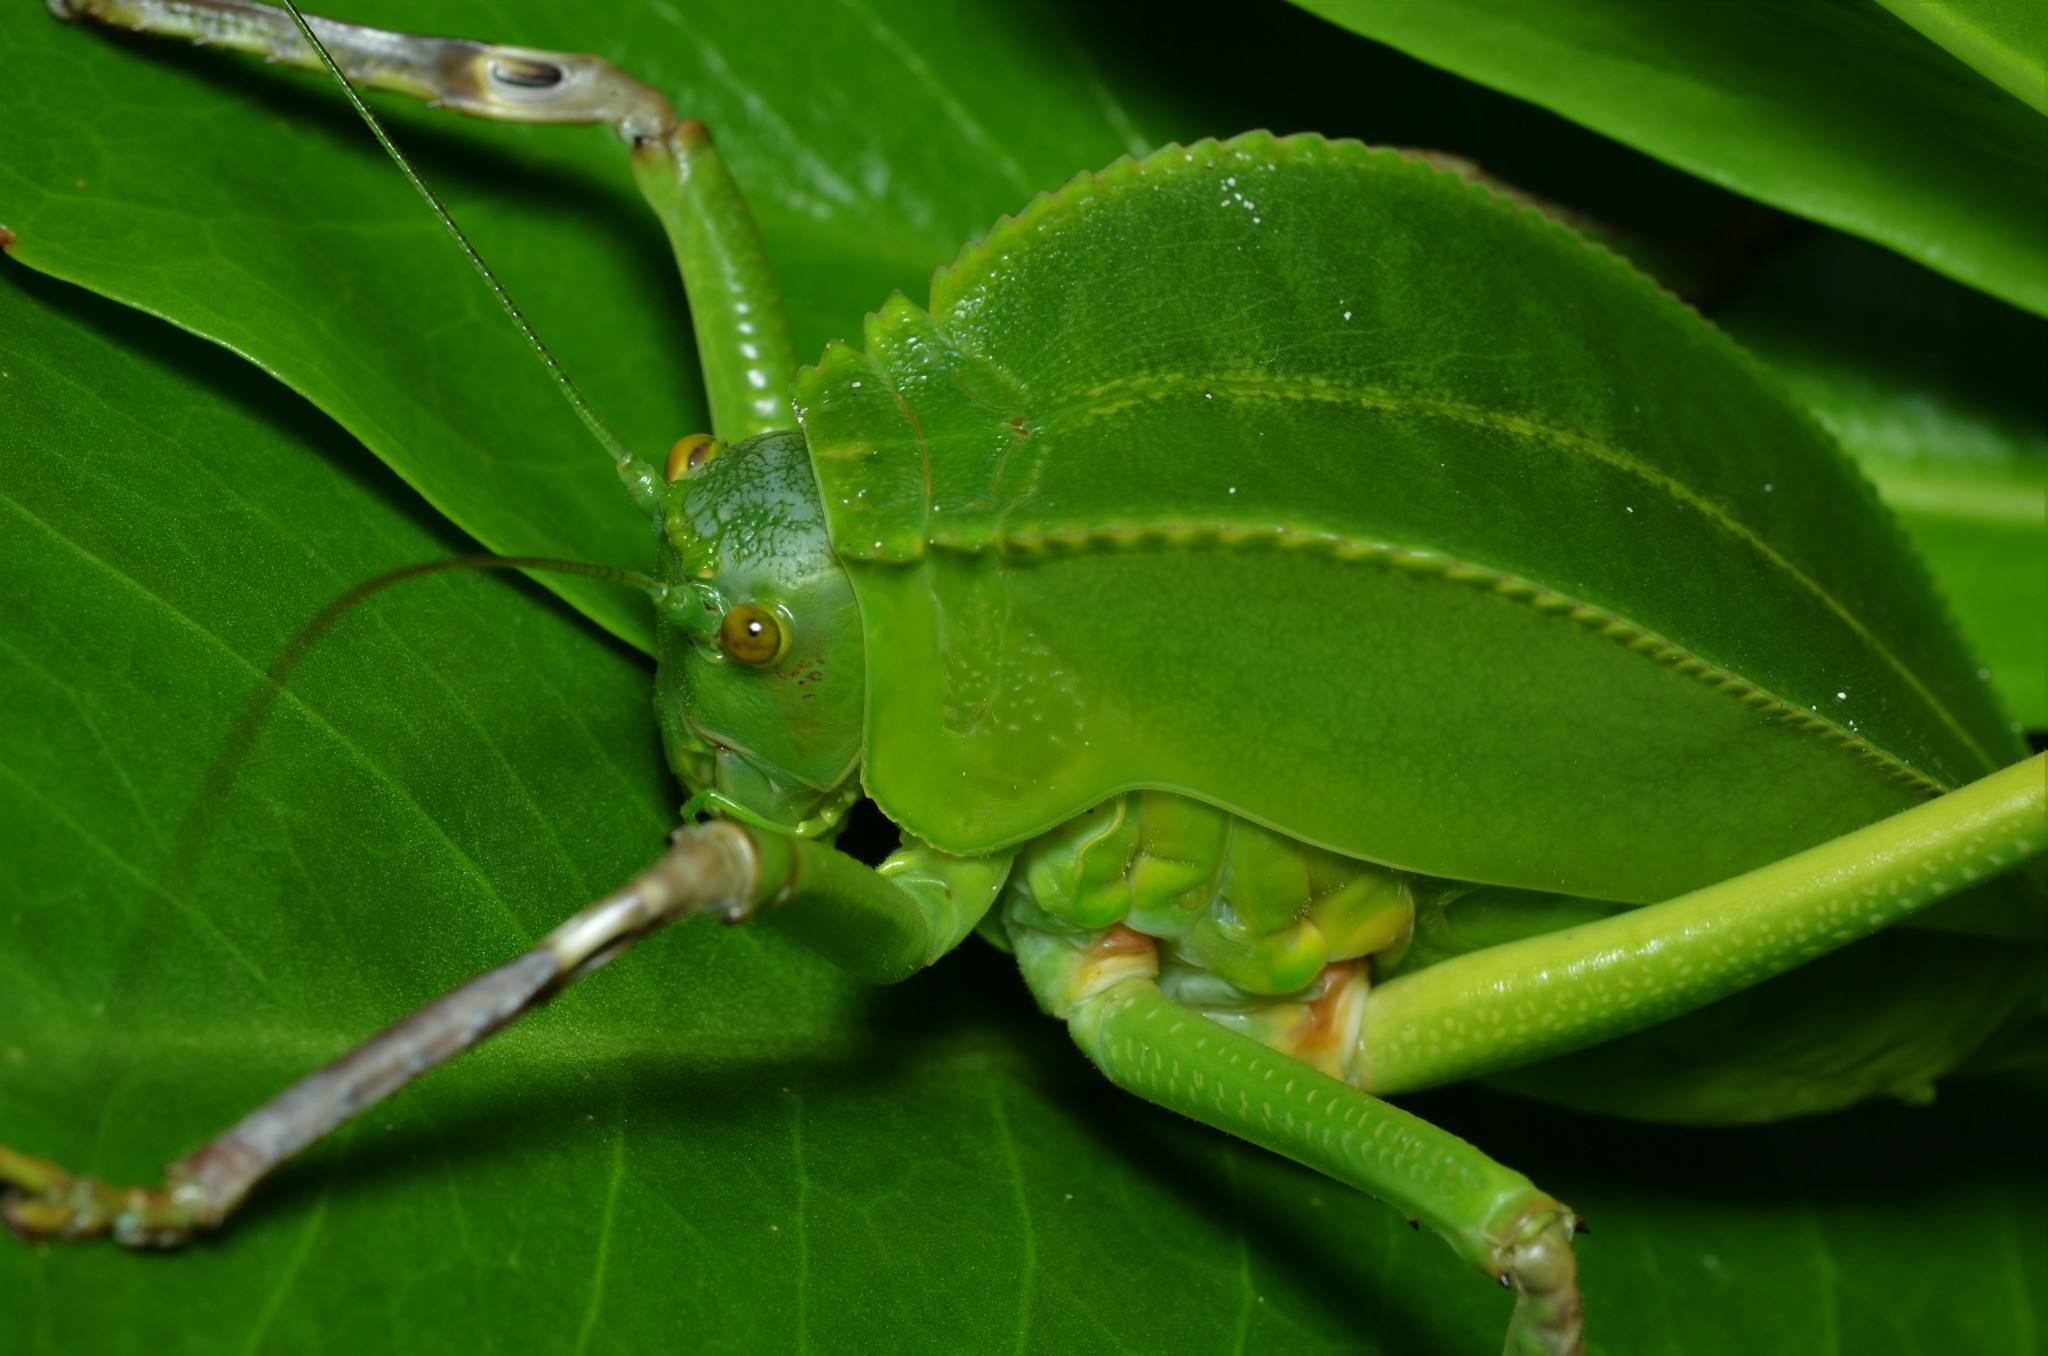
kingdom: Animalia
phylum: Arthropoda
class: Insecta
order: Orthoptera
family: Tettigoniidae
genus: Siliquofera
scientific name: Siliquofera grandis
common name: Giant katydid
